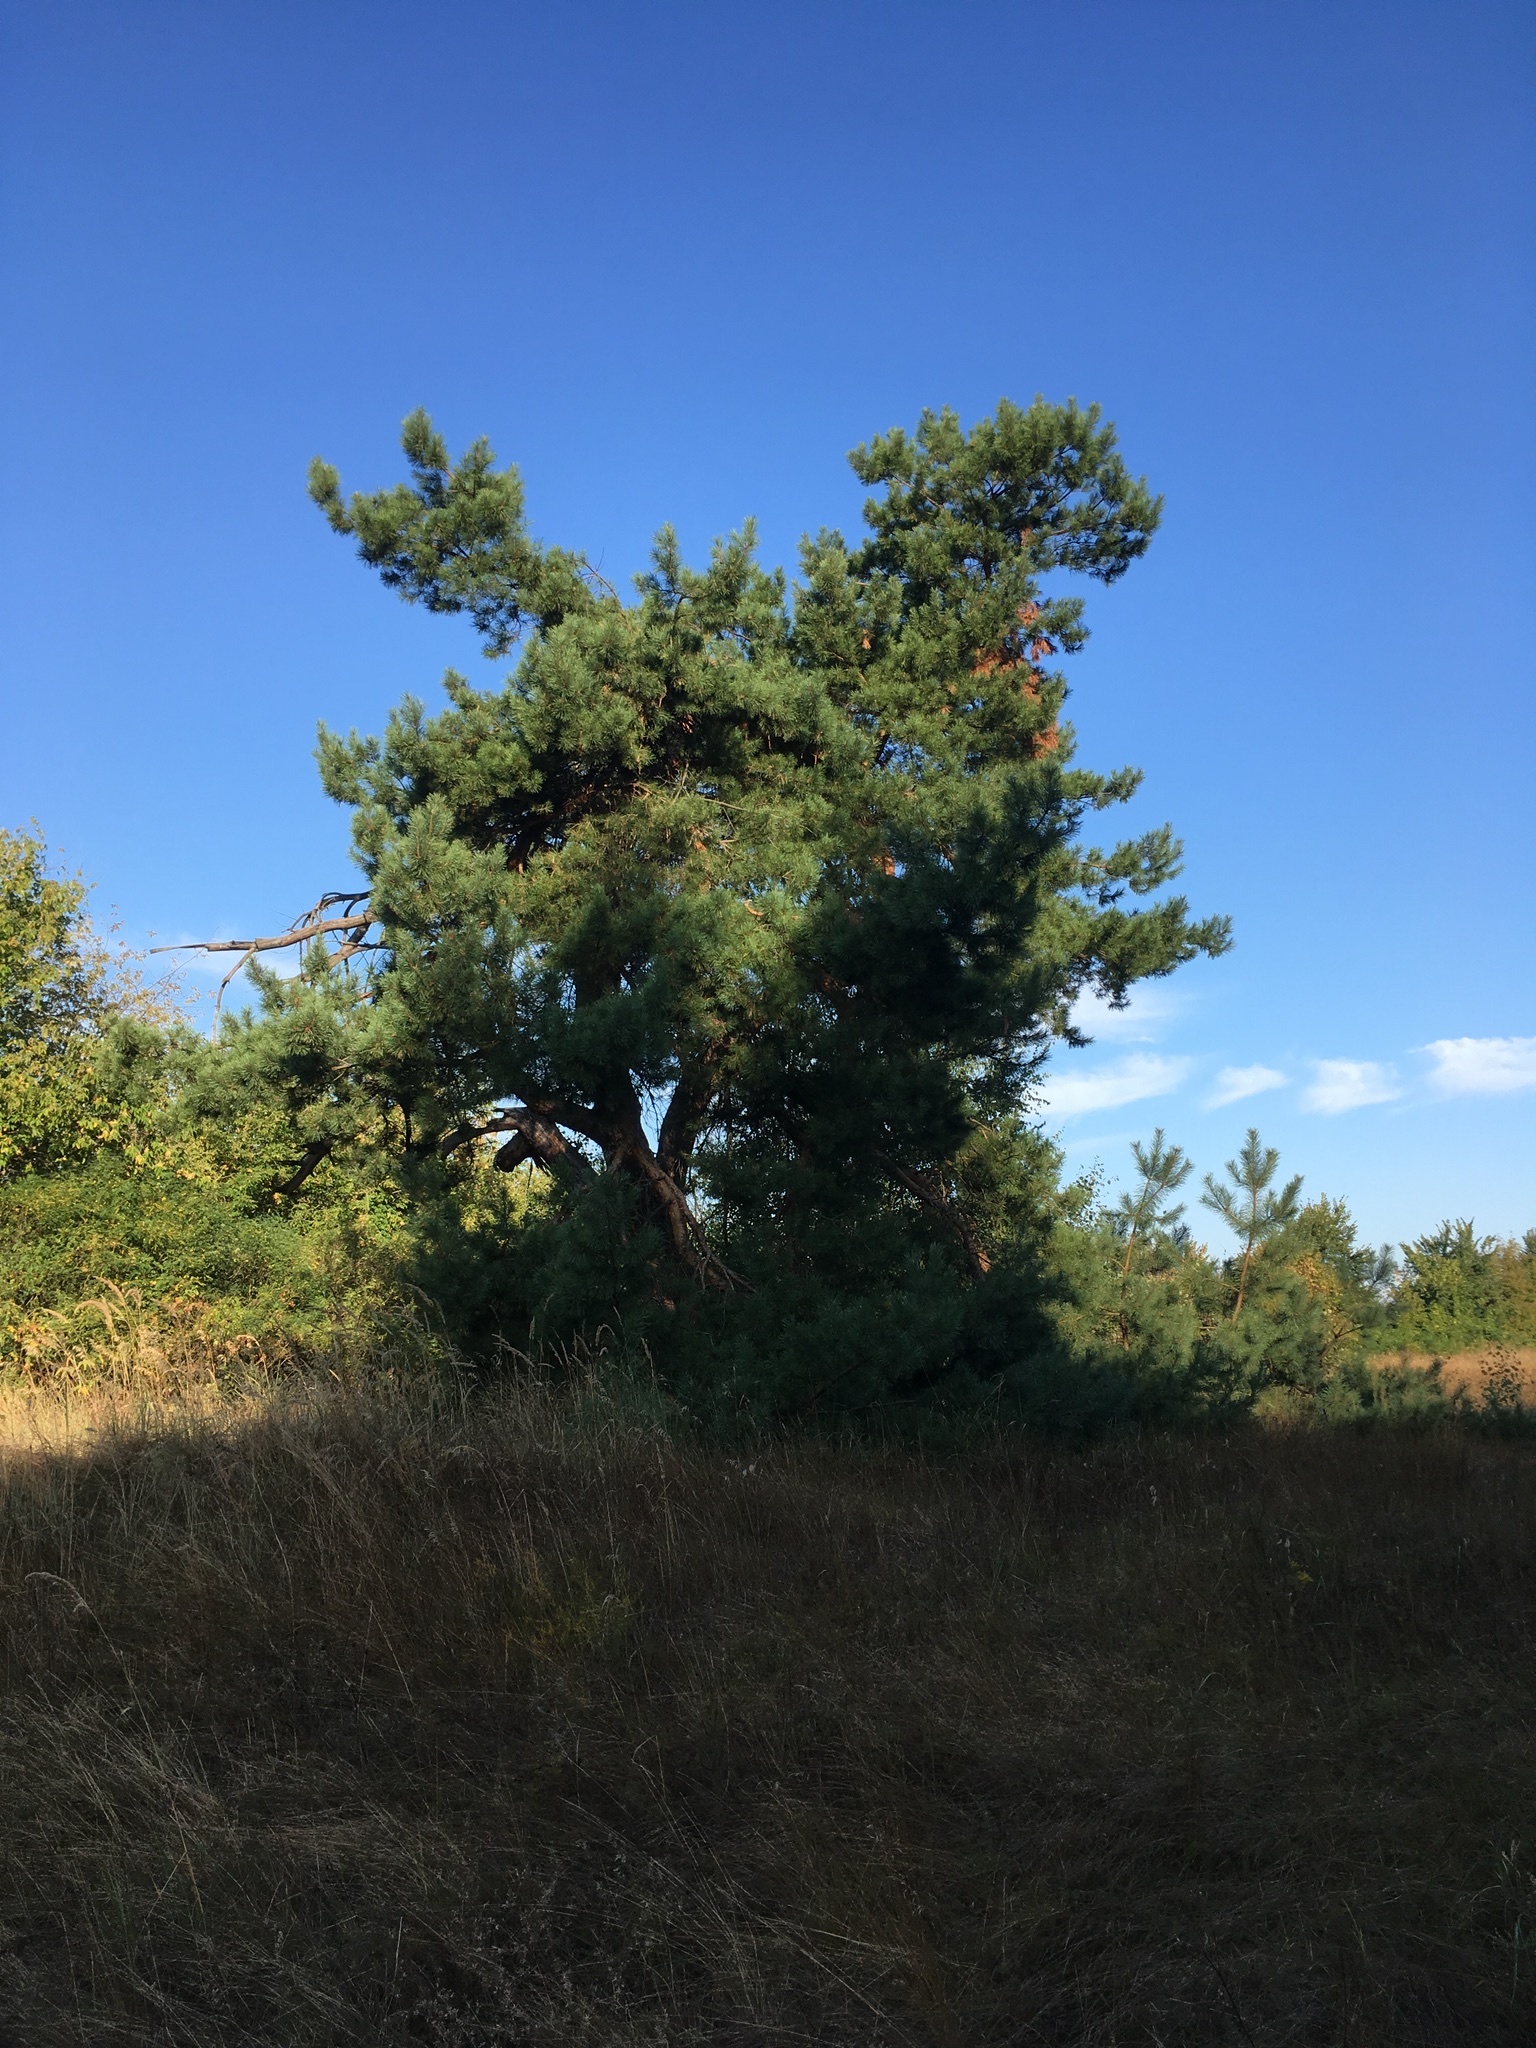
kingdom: Plantae
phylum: Tracheophyta
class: Pinopsida
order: Pinales
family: Pinaceae
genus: Pinus
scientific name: Pinus sylvestris
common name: Scots pine
